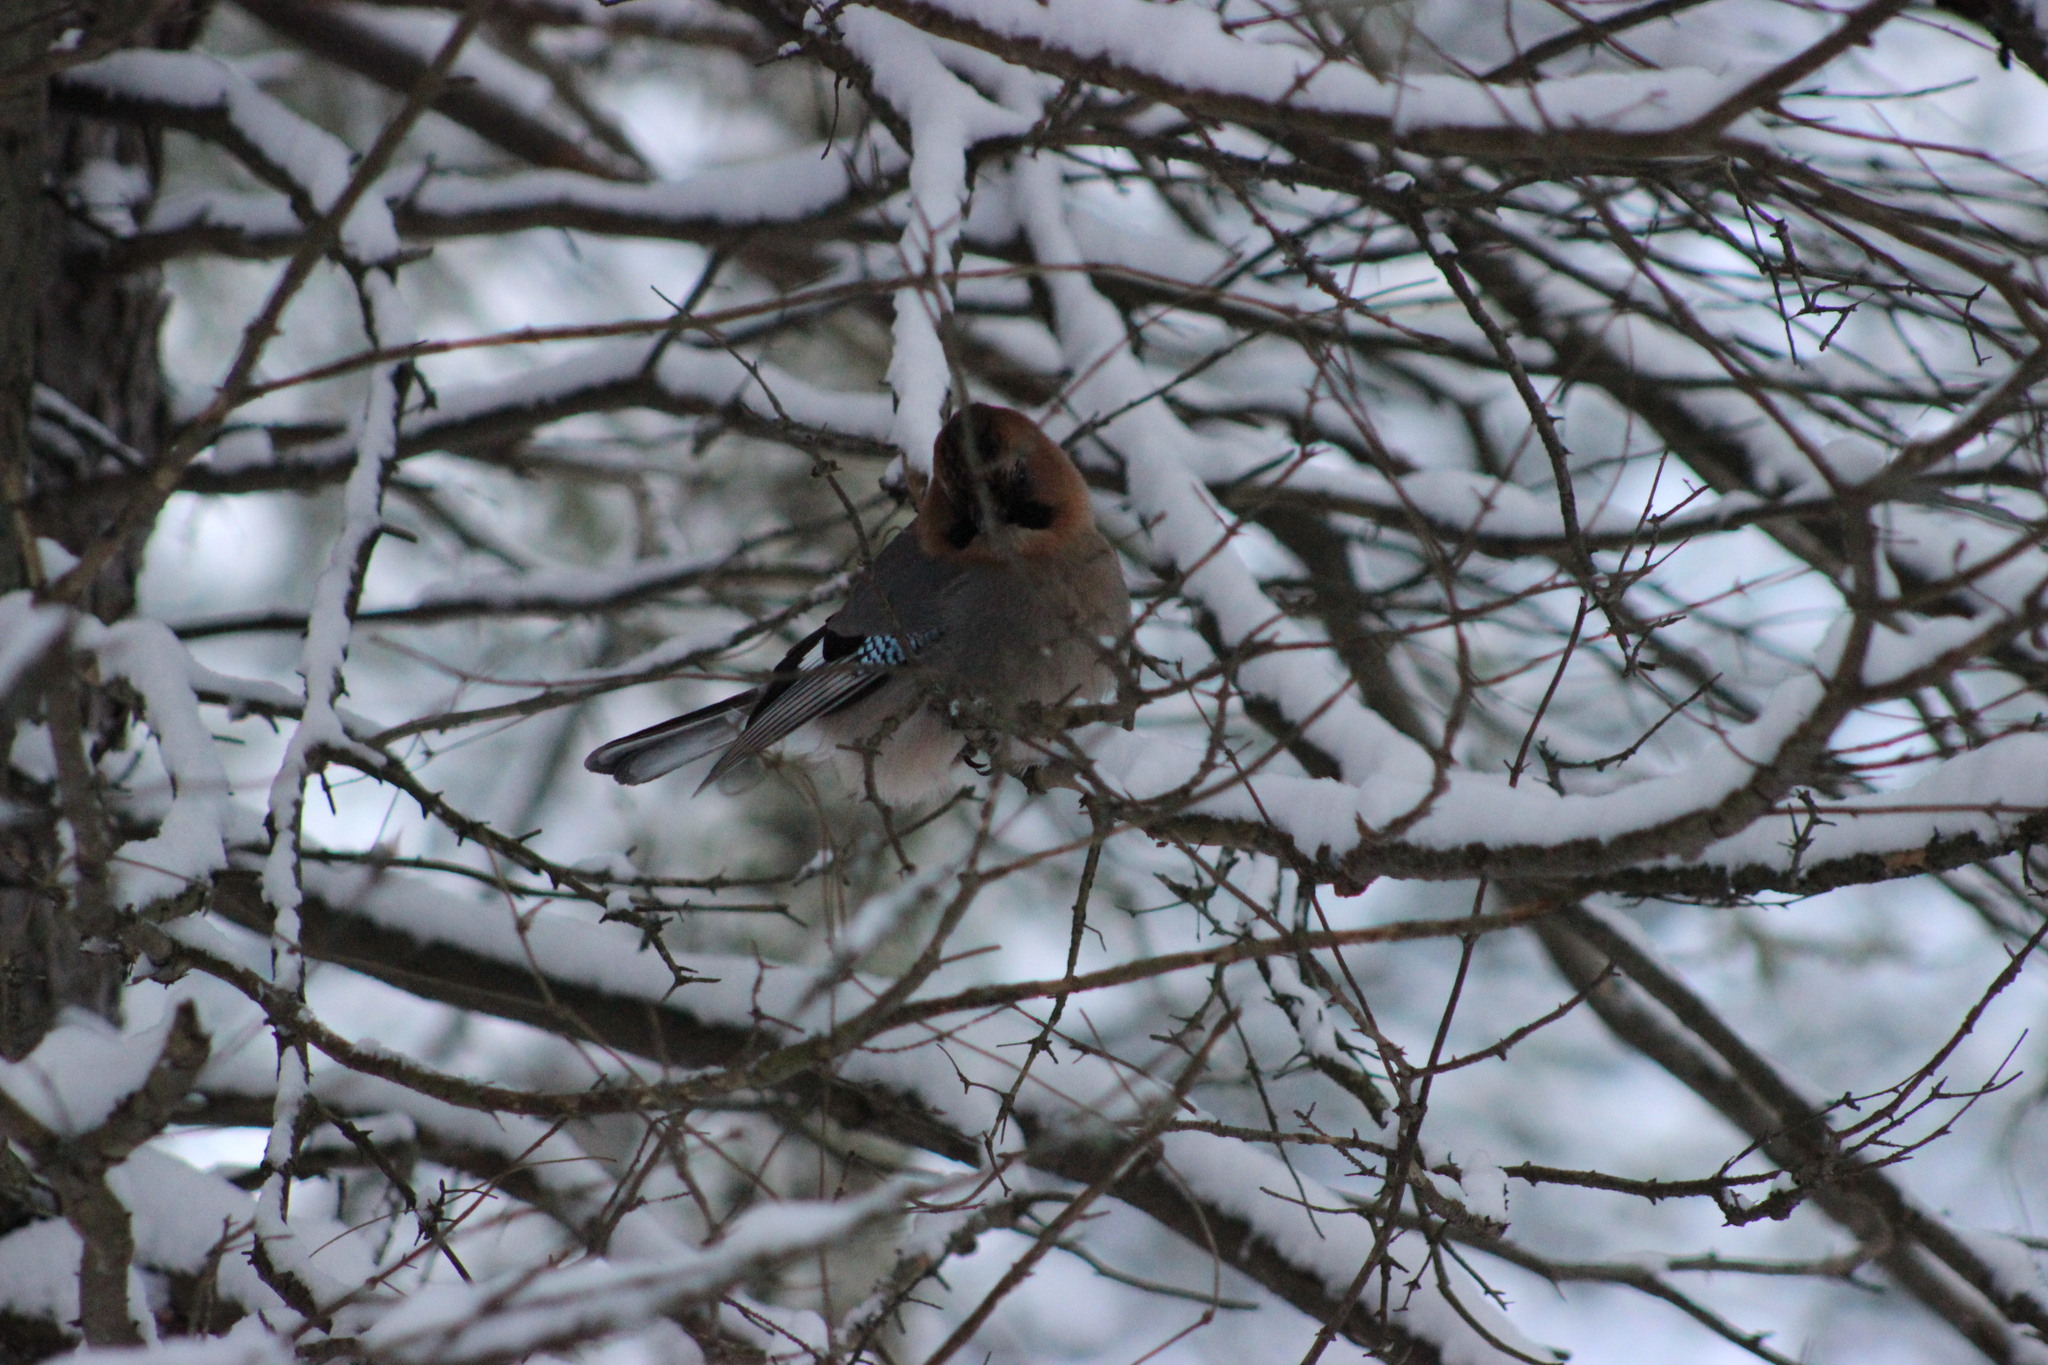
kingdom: Animalia
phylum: Chordata
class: Aves
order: Passeriformes
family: Corvidae
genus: Garrulus
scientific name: Garrulus glandarius
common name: Eurasian jay
